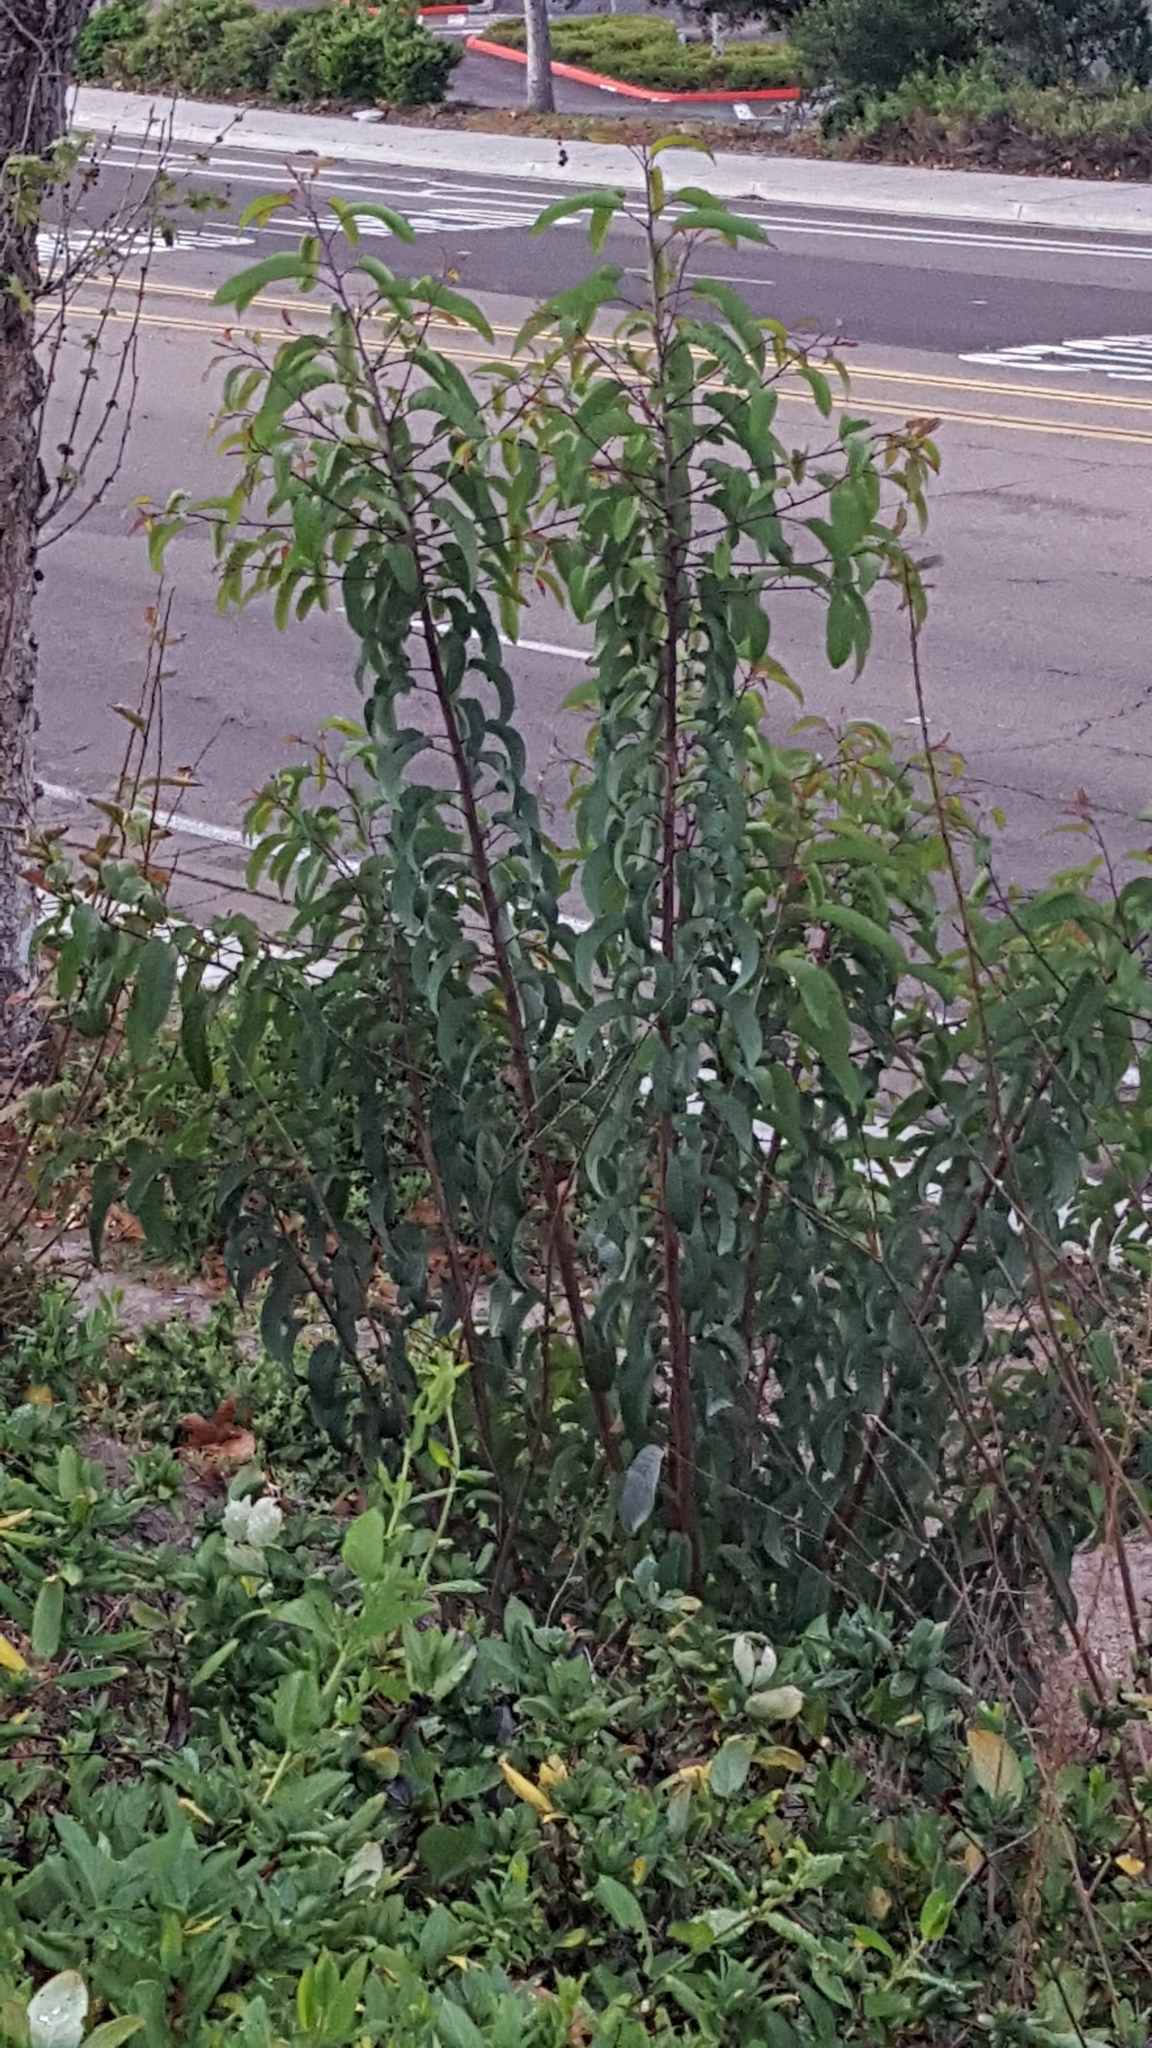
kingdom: Plantae
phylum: Tracheophyta
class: Magnoliopsida
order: Sapindales
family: Anacardiaceae
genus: Malosma
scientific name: Malosma laurina
